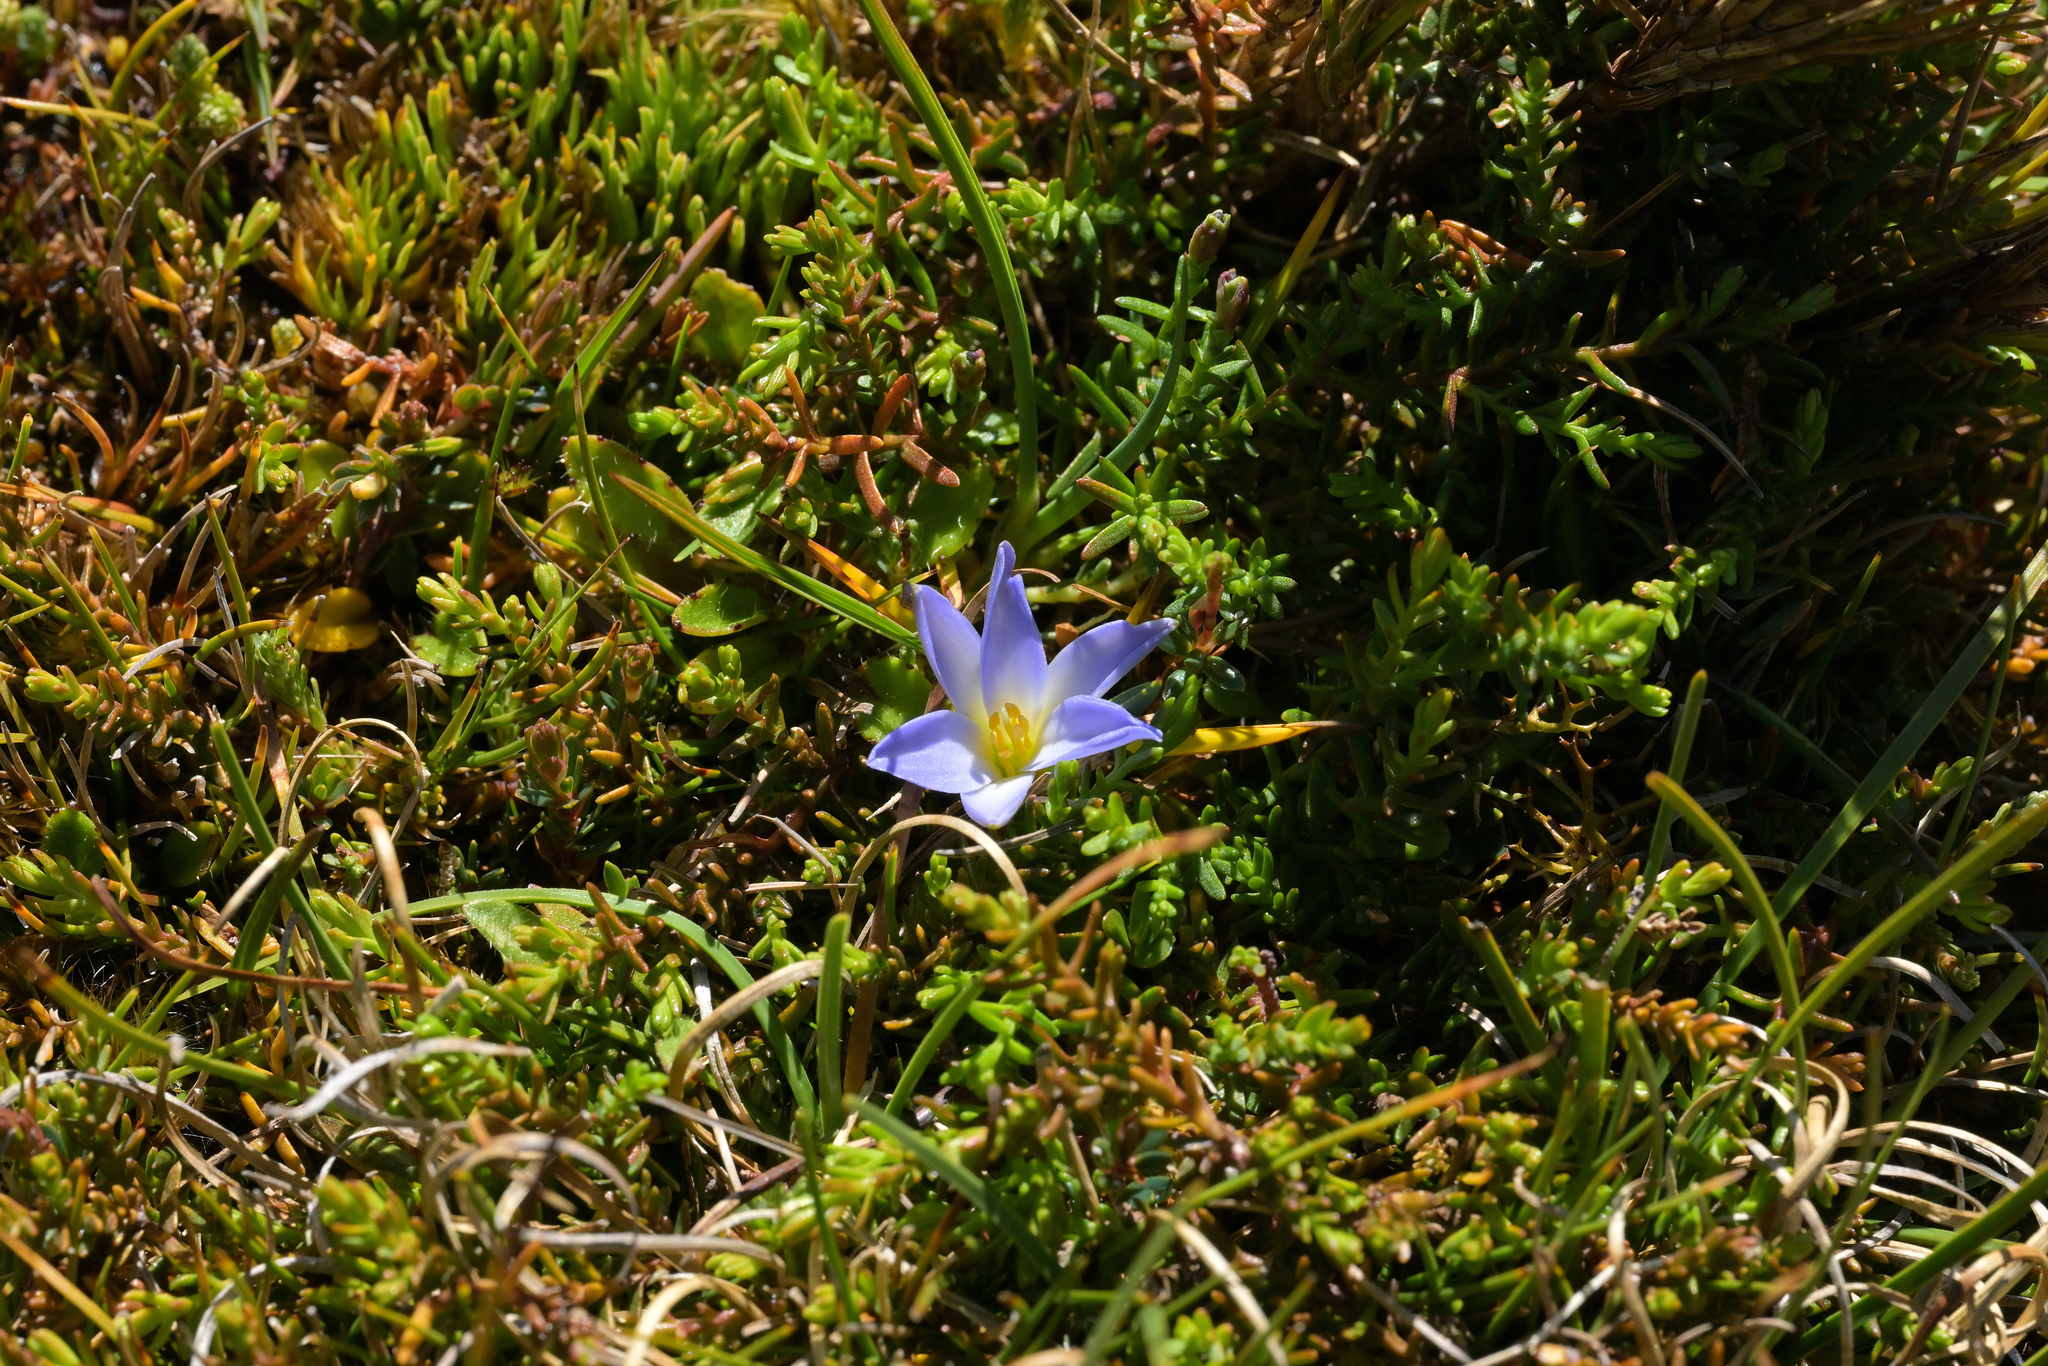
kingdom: Plantae
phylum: Tracheophyta
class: Liliopsida
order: Asparagales
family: Asphodelaceae
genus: Herpolirion
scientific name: Herpolirion novae-zelandiae
